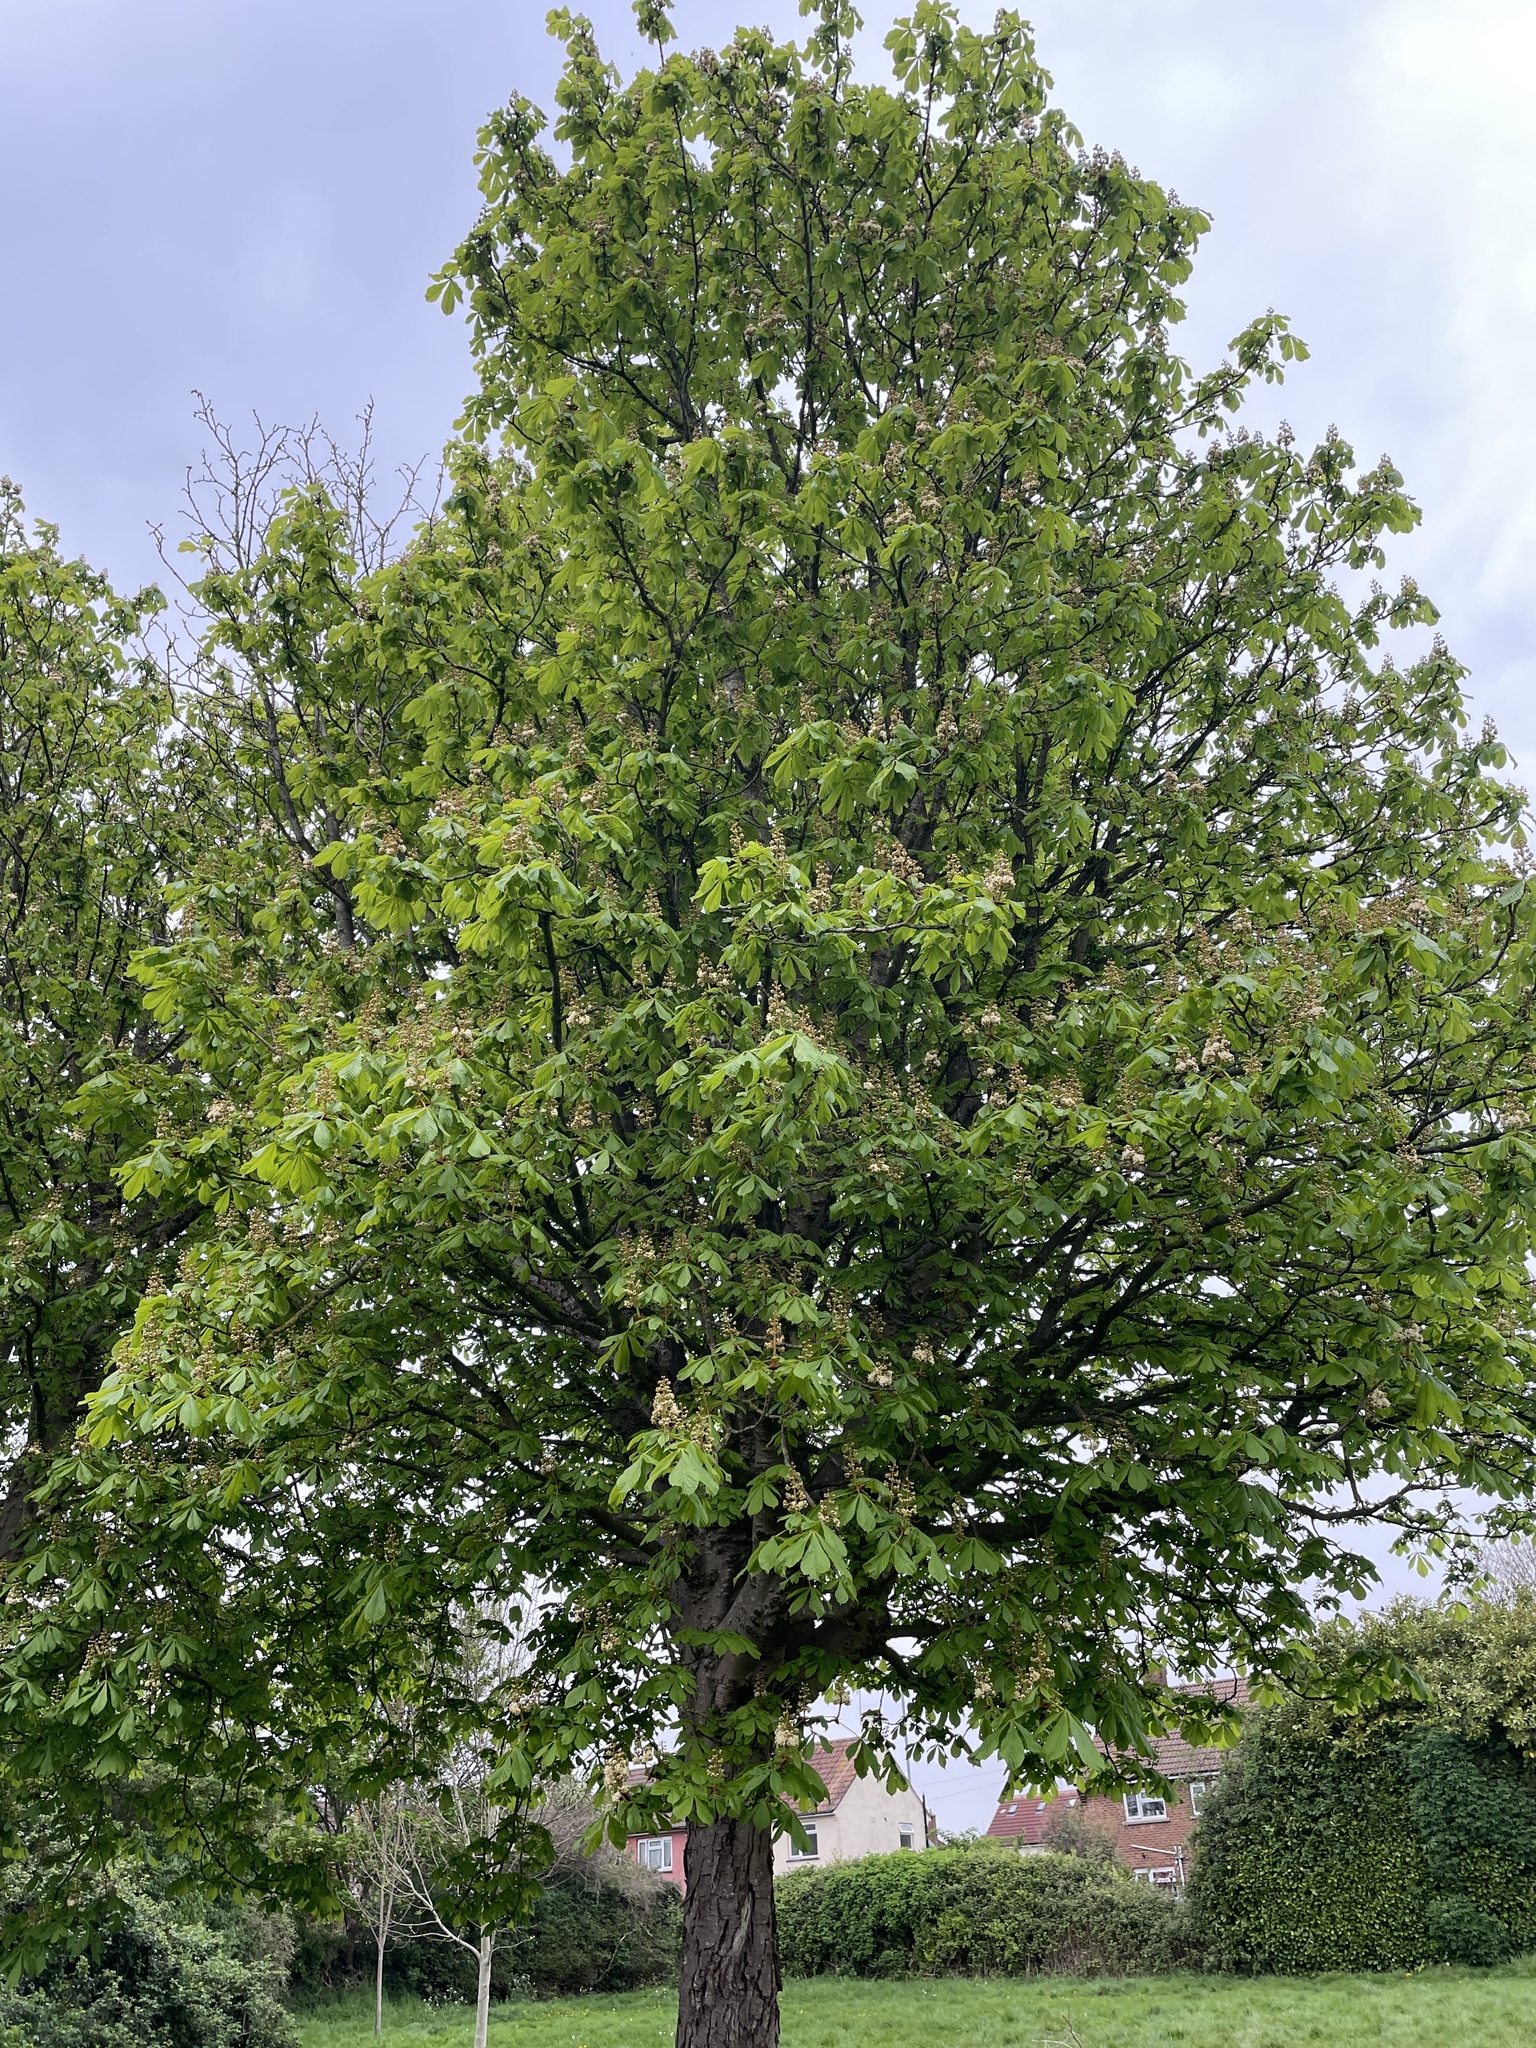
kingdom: Plantae
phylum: Tracheophyta
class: Magnoliopsida
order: Sapindales
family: Sapindaceae
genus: Aesculus
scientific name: Aesculus hippocastanum
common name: Horse-chestnut
